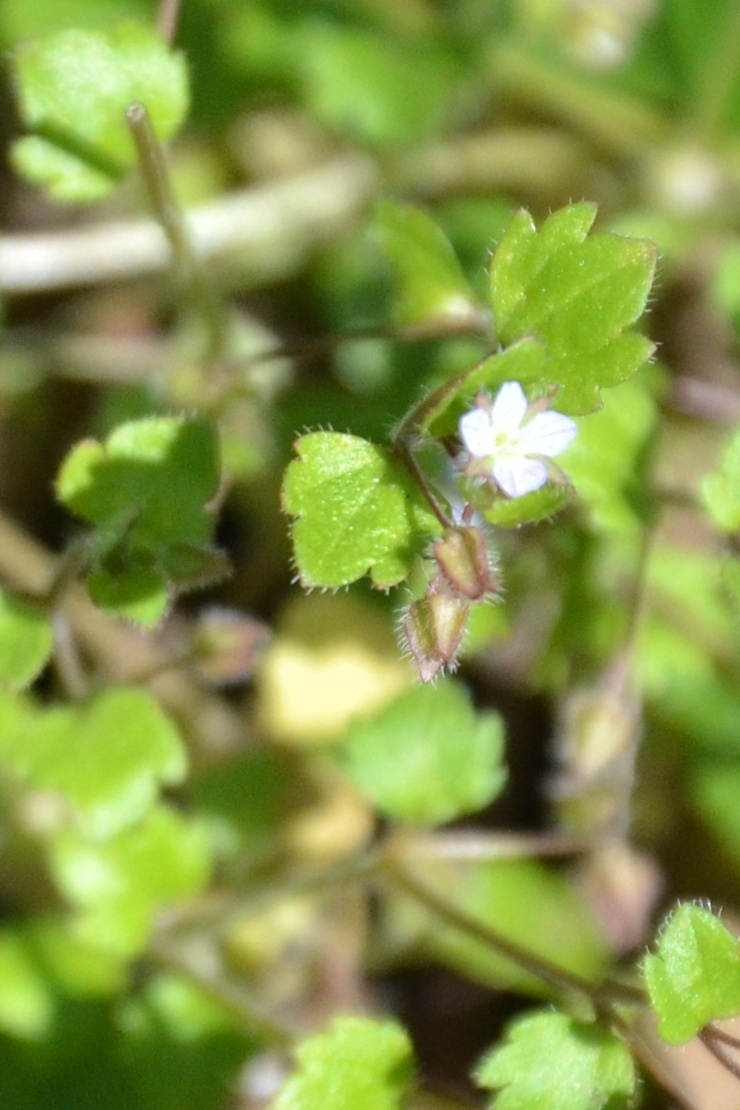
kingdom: Plantae
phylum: Tracheophyta
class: Magnoliopsida
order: Lamiales
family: Plantaginaceae
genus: Veronica
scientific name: Veronica sublobata
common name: False ivy-leaved speedwell
